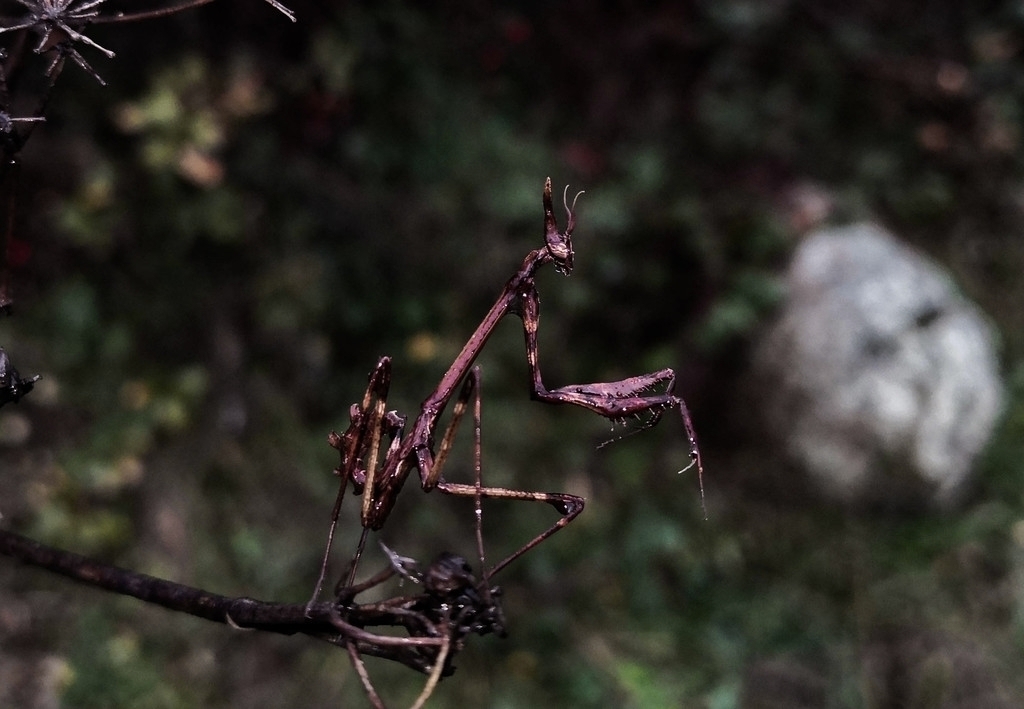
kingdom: Animalia
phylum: Arthropoda
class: Insecta
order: Mantodea
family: Empusidae
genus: Empusa
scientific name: Empusa pennata
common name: Conehead mantis
